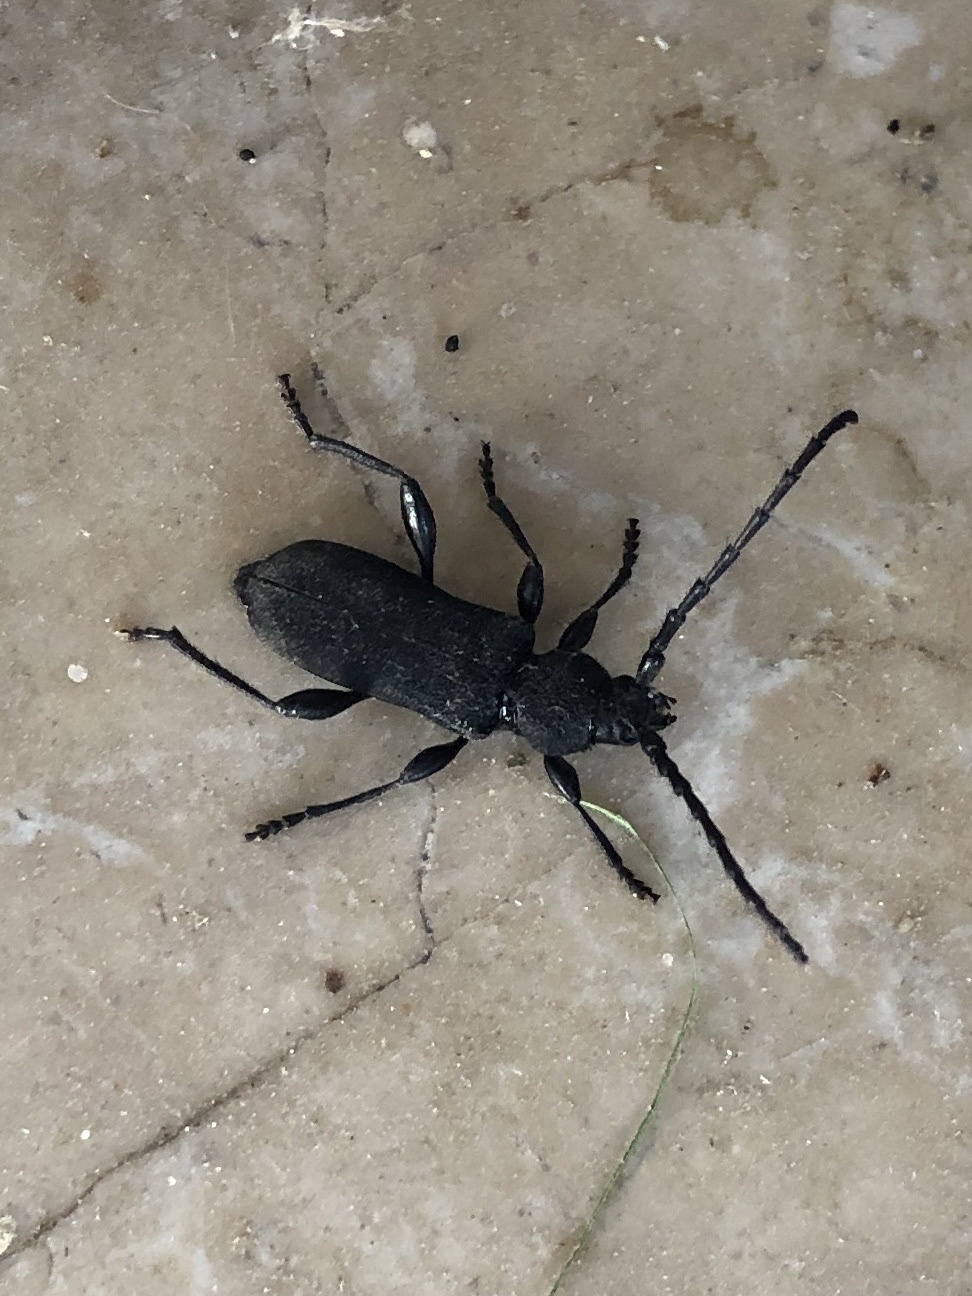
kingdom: Animalia
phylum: Arthropoda
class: Insecta
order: Coleoptera
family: Cerambycidae
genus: Ropalopus
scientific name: Ropalopus clavipes
